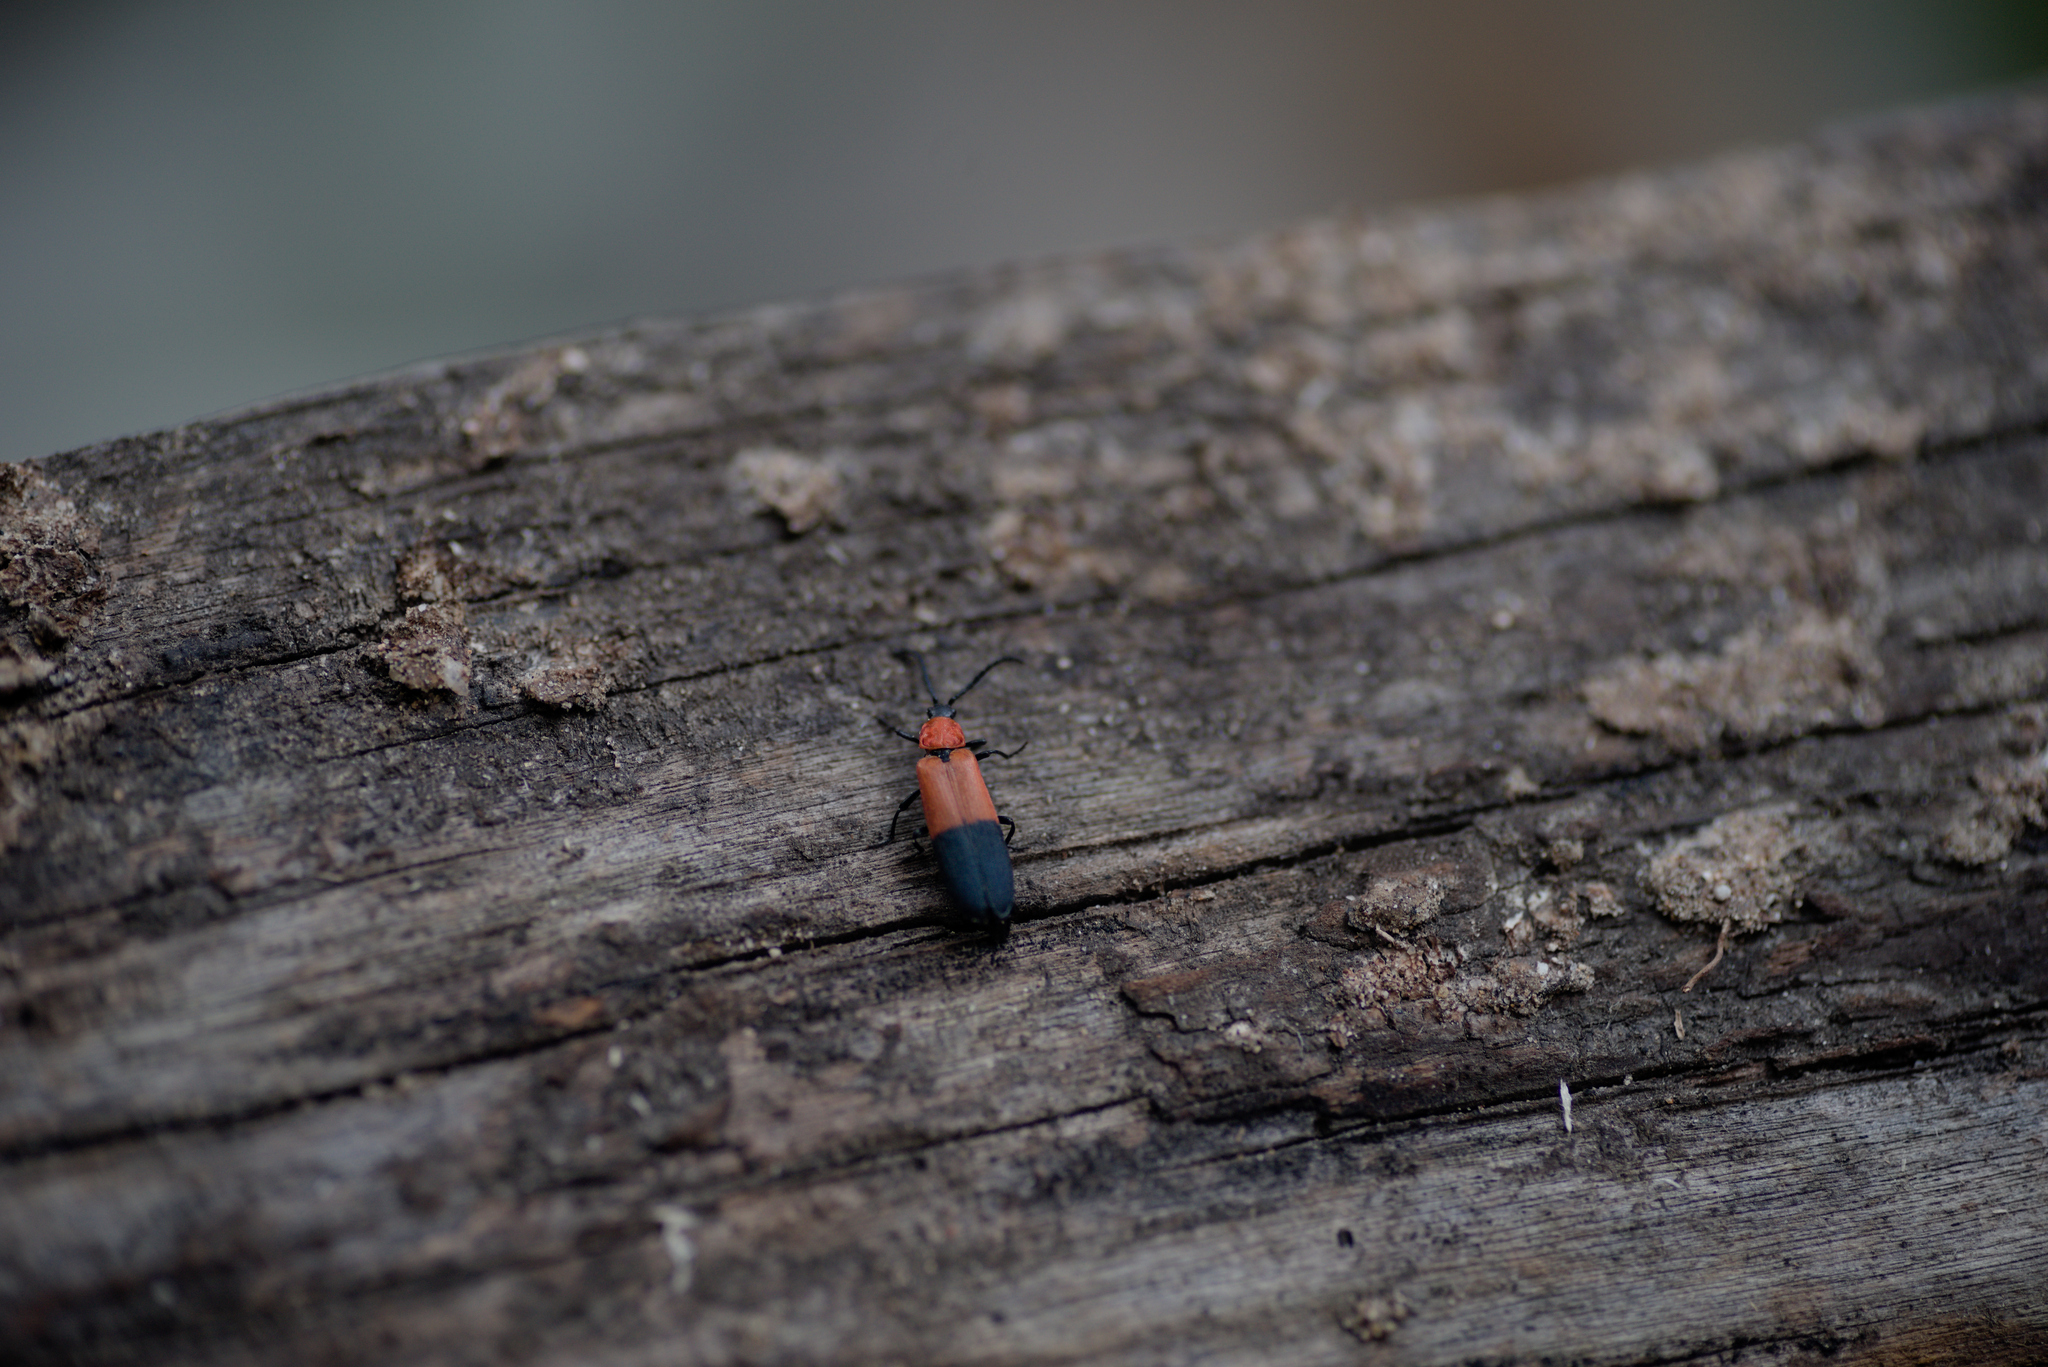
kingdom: Animalia
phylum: Arthropoda
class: Insecta
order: Coleoptera
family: Lycidae
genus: Calochromus
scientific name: Calochromus slevini
